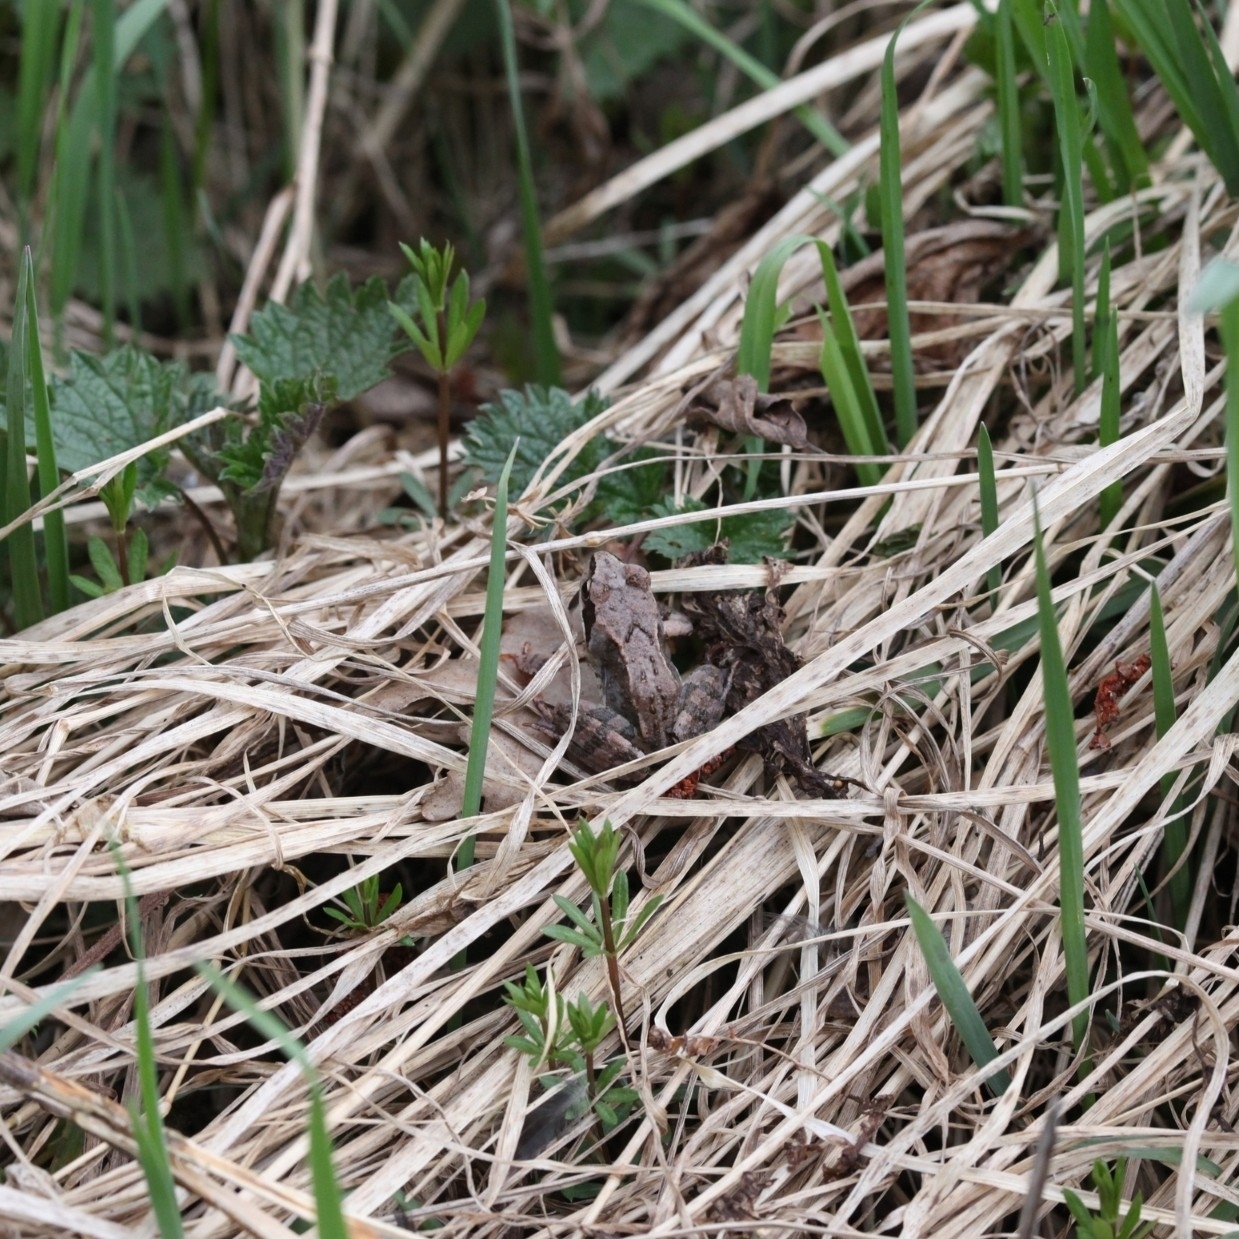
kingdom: Animalia
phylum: Chordata
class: Amphibia
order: Anura
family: Ranidae
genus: Rana
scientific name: Rana temporaria
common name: Common frog
